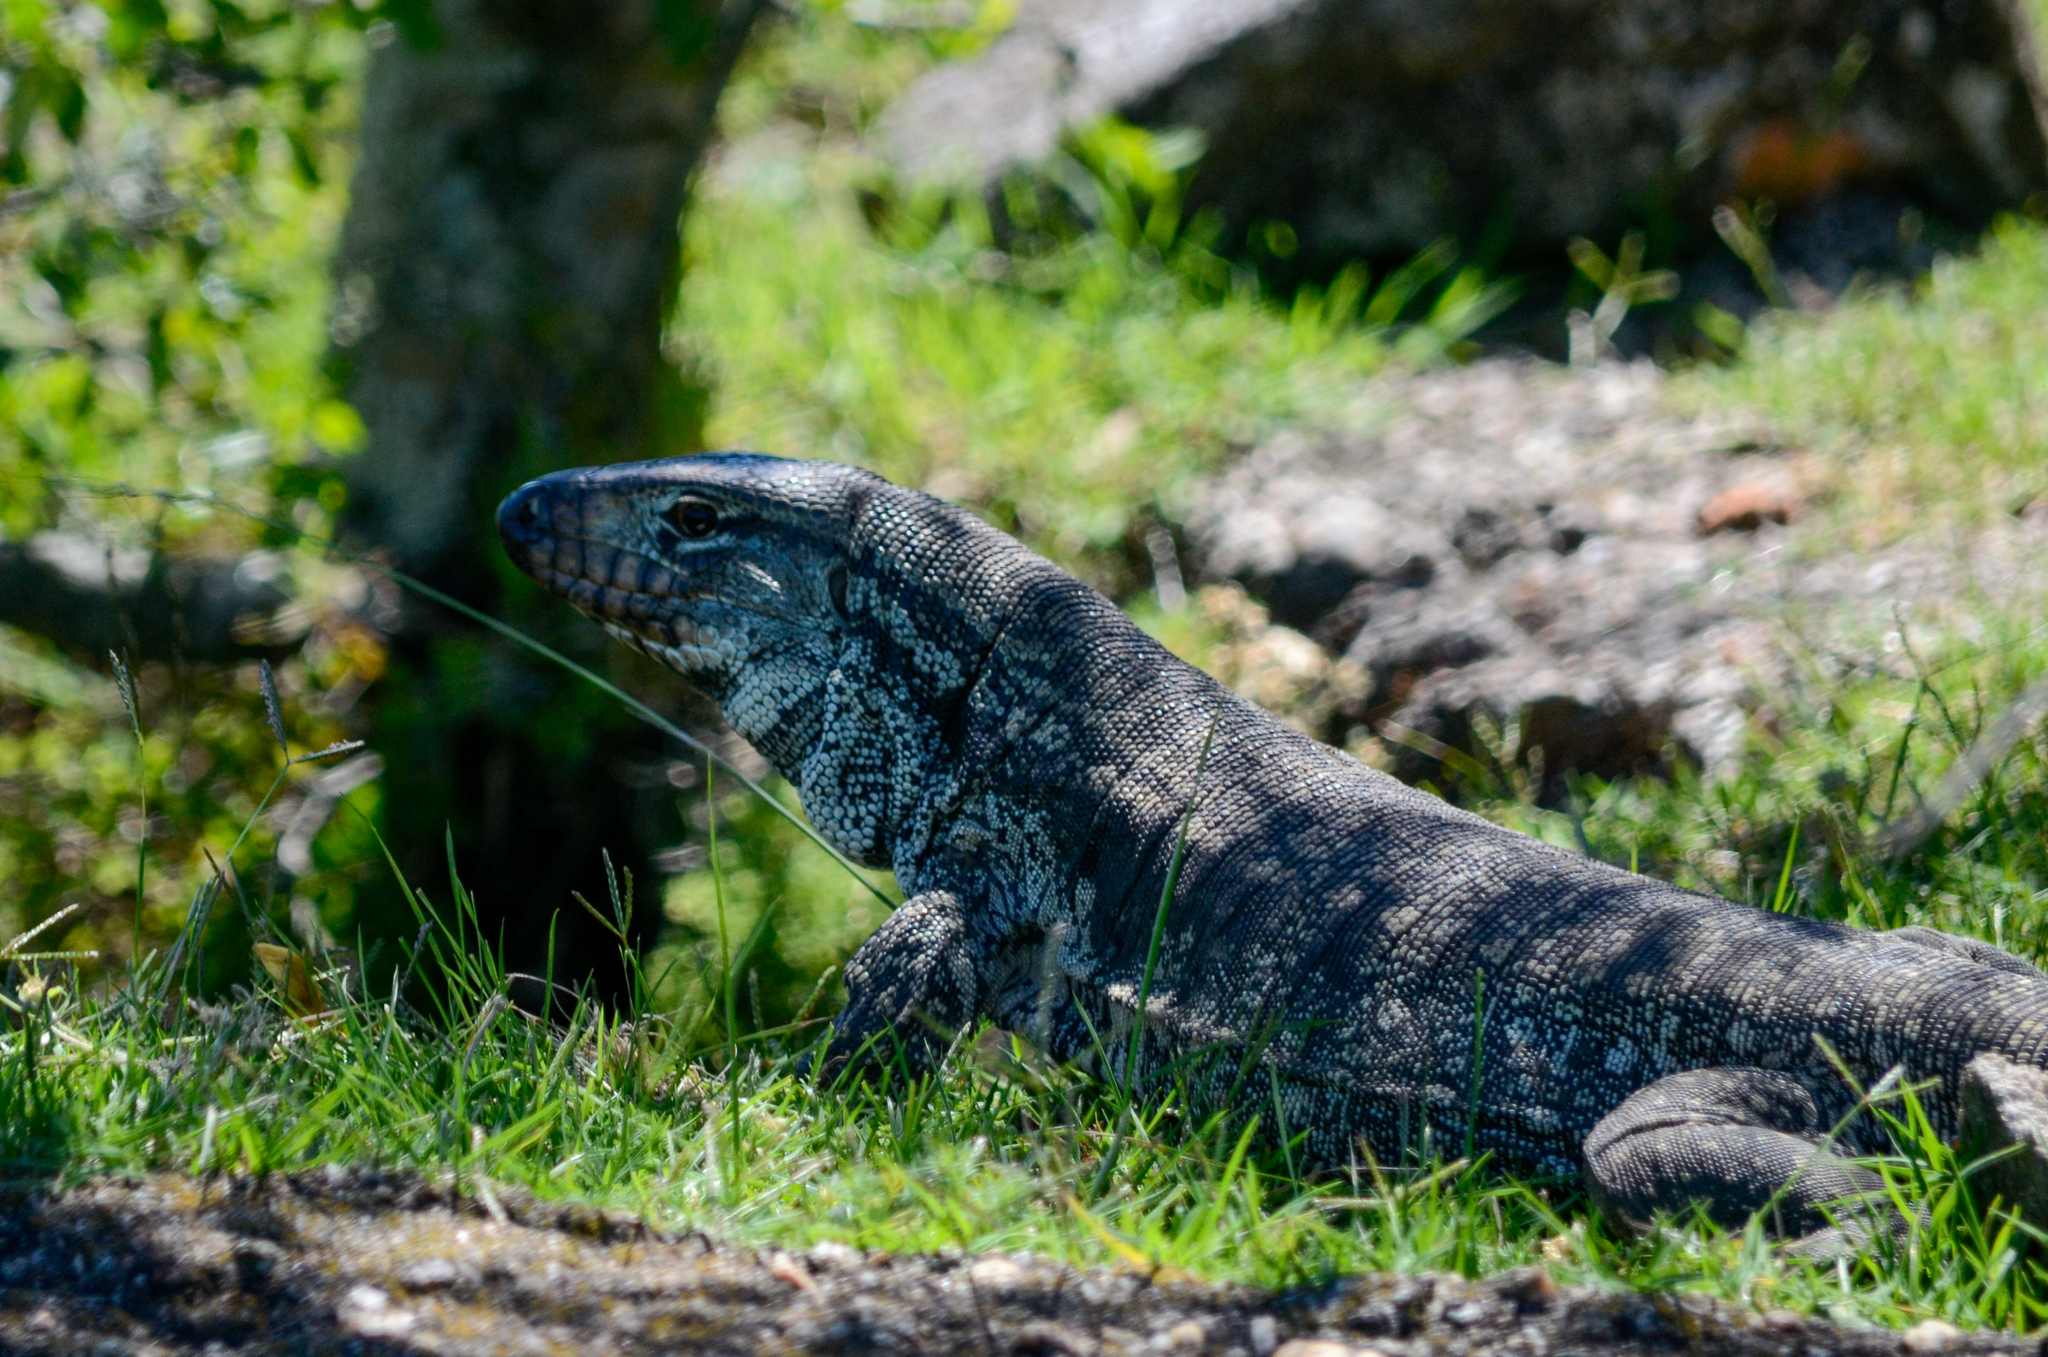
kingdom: Animalia
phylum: Chordata
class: Squamata
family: Teiidae
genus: Salvator
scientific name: Salvator merianae
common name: Argentine black and white tegu
